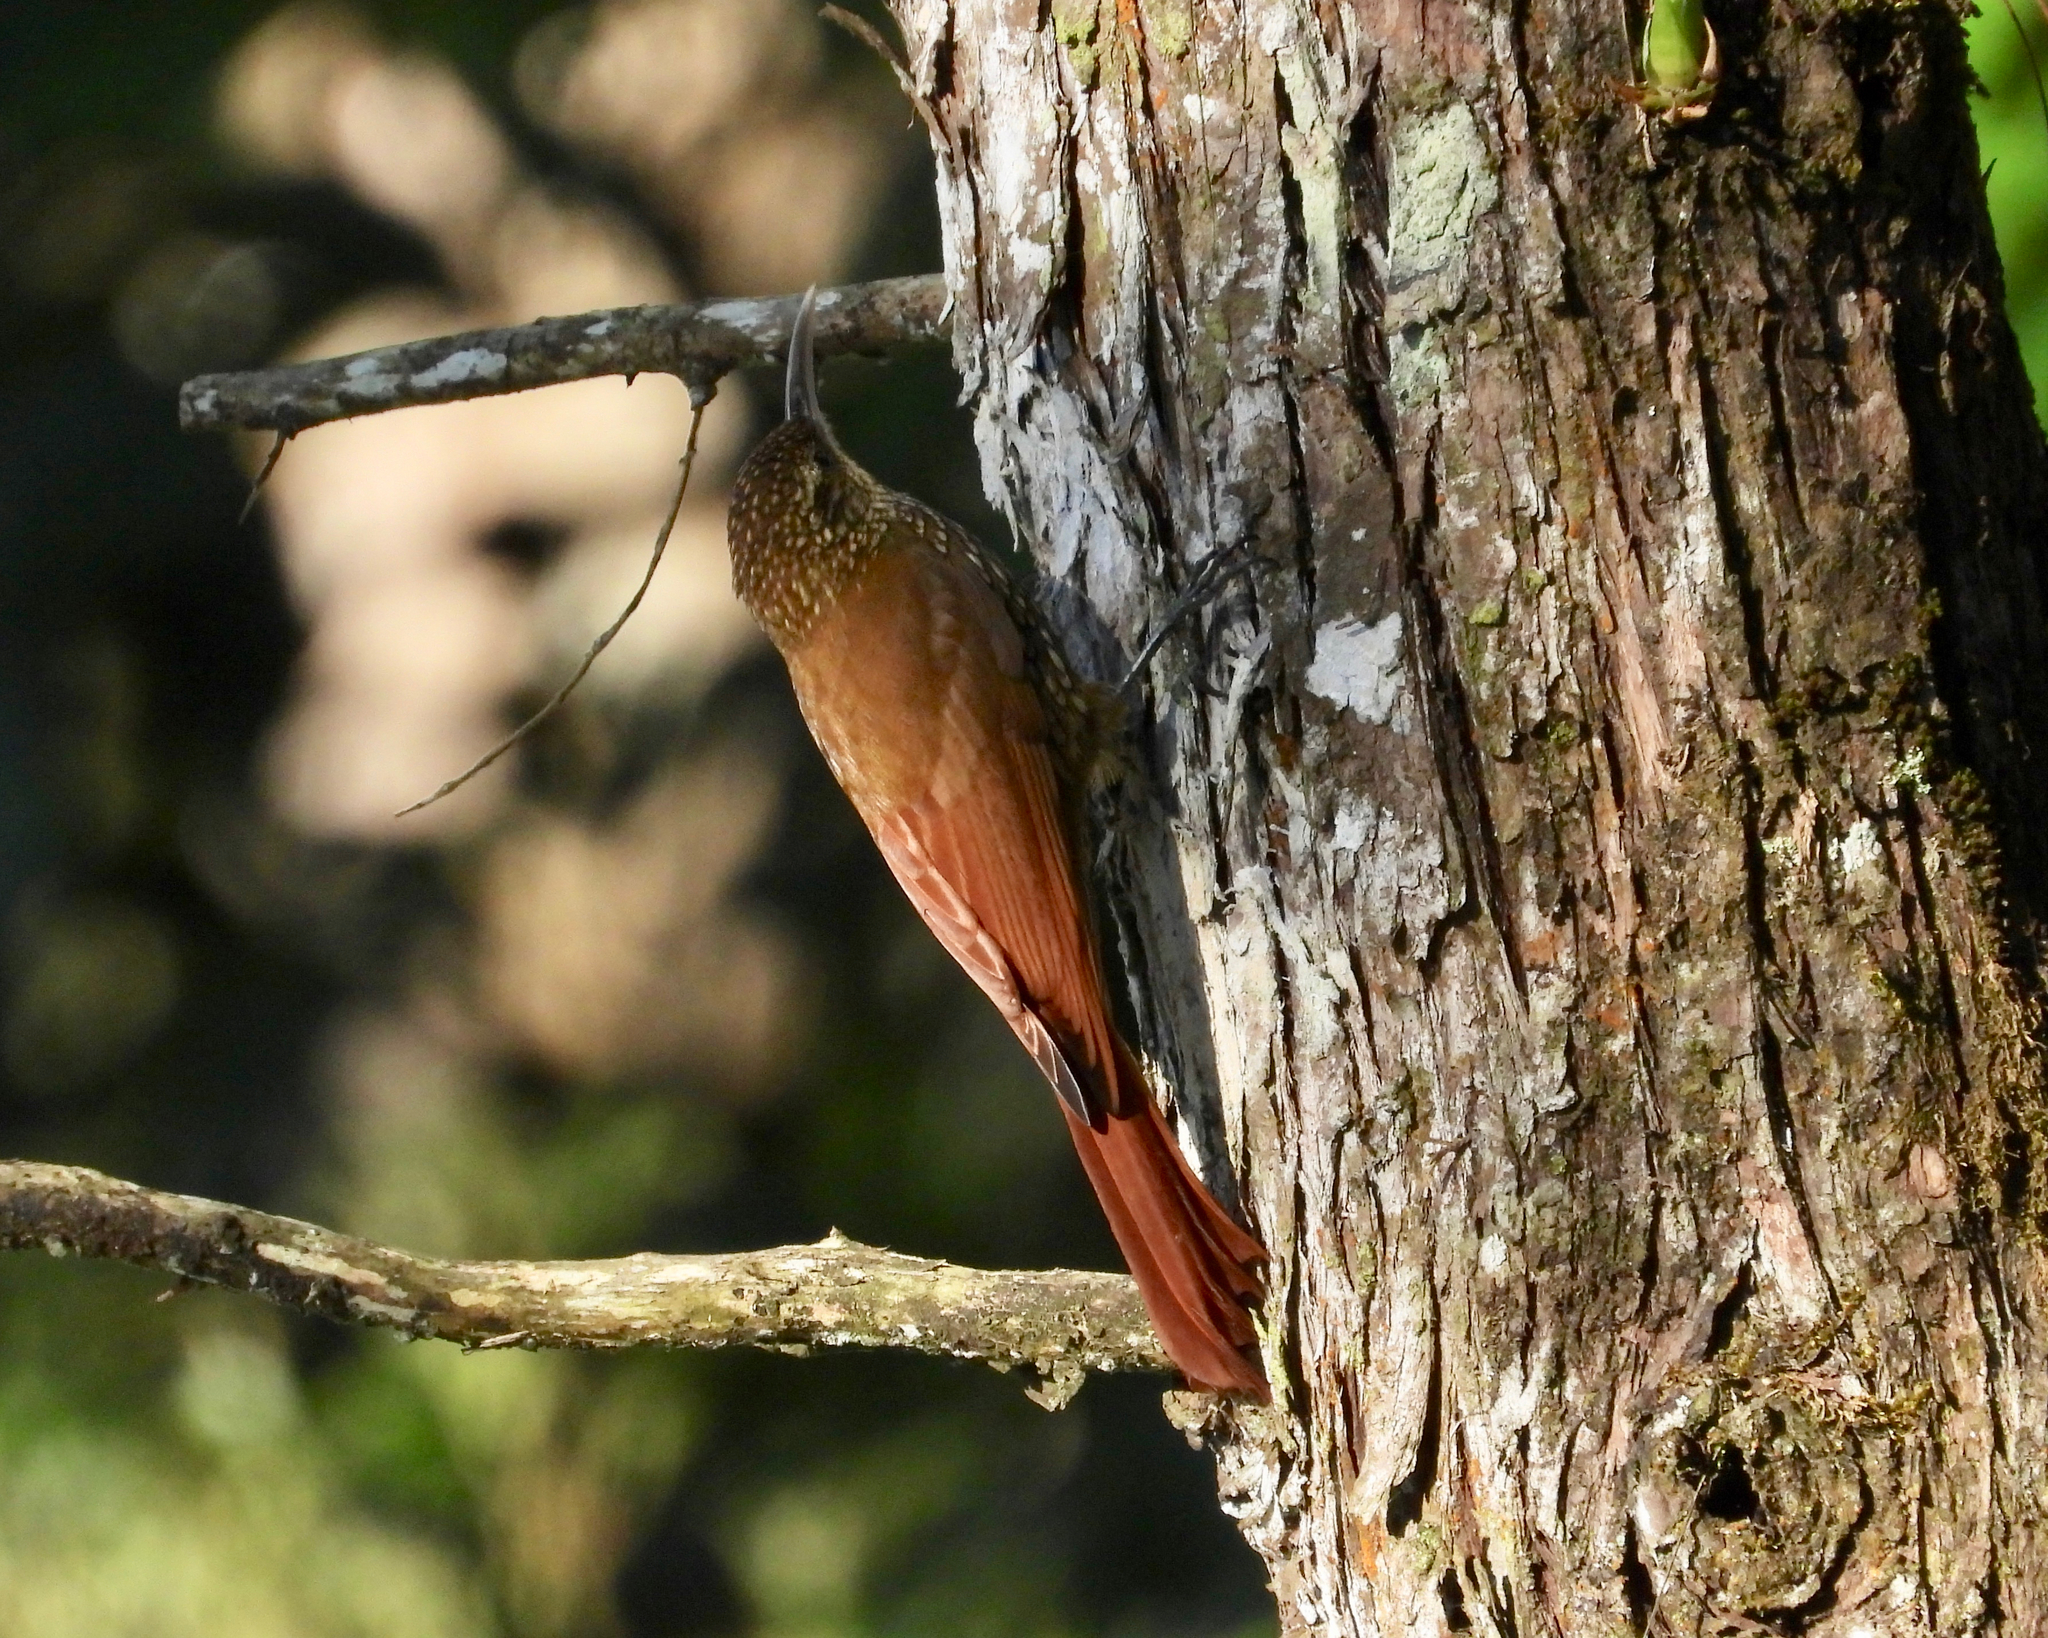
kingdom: Animalia
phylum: Chordata
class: Aves
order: Passeriformes
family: Furnariidae
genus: Lepidocolaptes
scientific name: Lepidocolaptes affinis
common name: Spot-crowned woodcreeper
